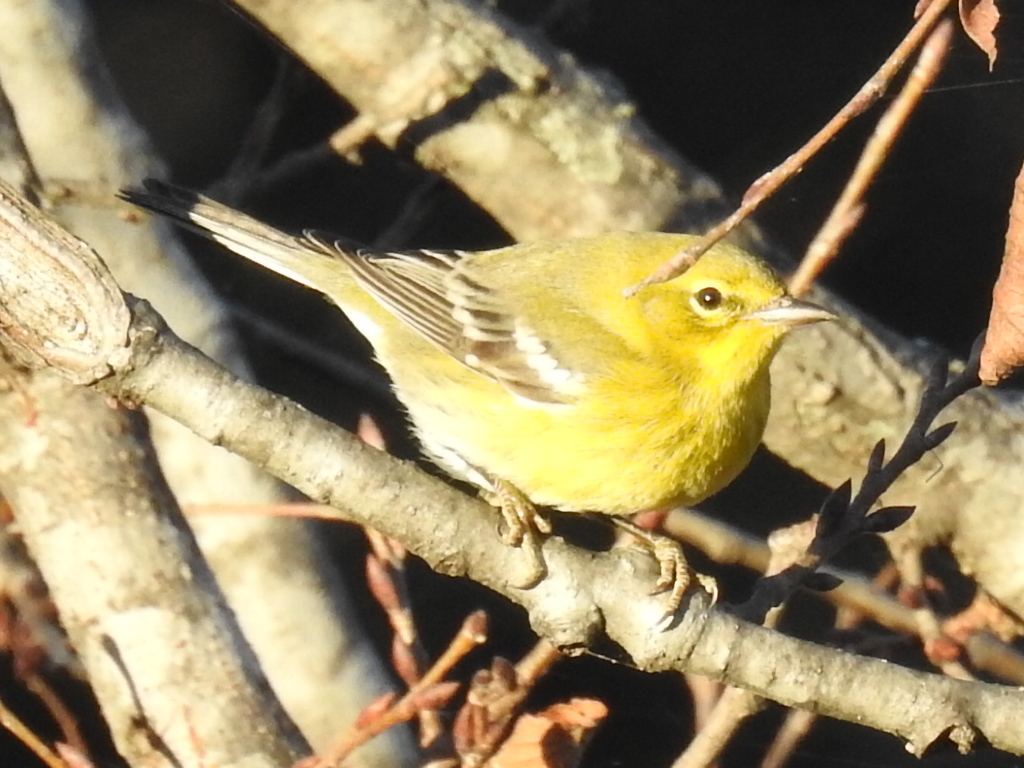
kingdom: Animalia
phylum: Chordata
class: Aves
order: Passeriformes
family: Parulidae
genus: Setophaga
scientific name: Setophaga pinus
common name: Pine warbler
